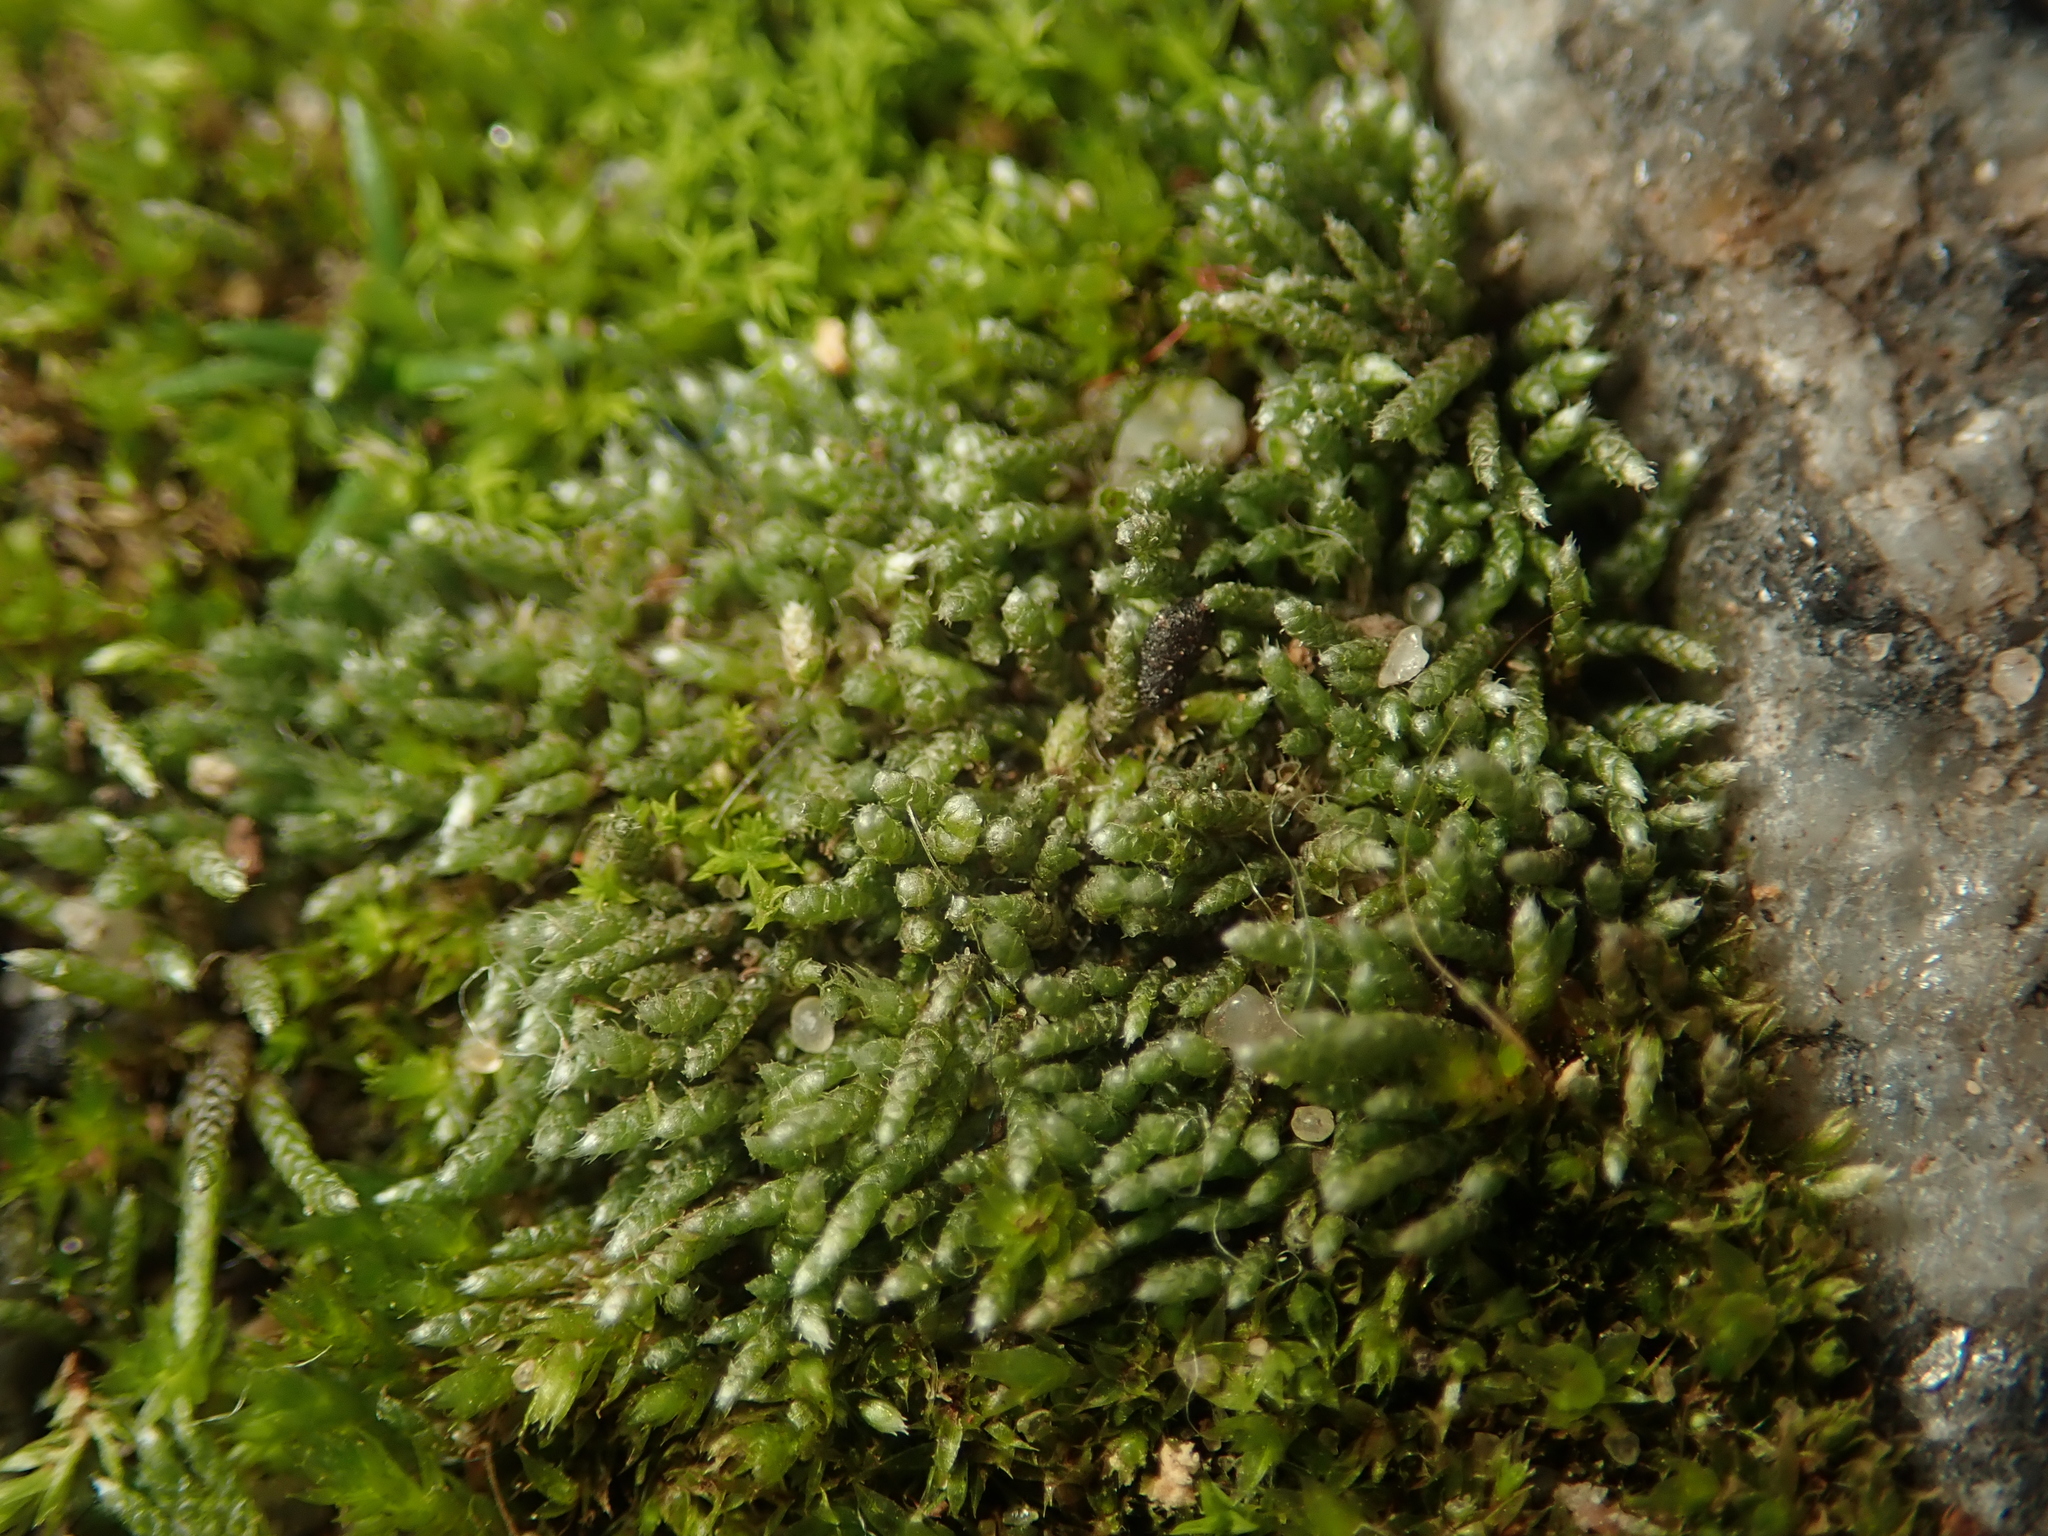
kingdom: Plantae
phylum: Bryophyta
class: Bryopsida
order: Bryales
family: Bryaceae
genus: Bryum
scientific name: Bryum argenteum
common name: Silver-moss
